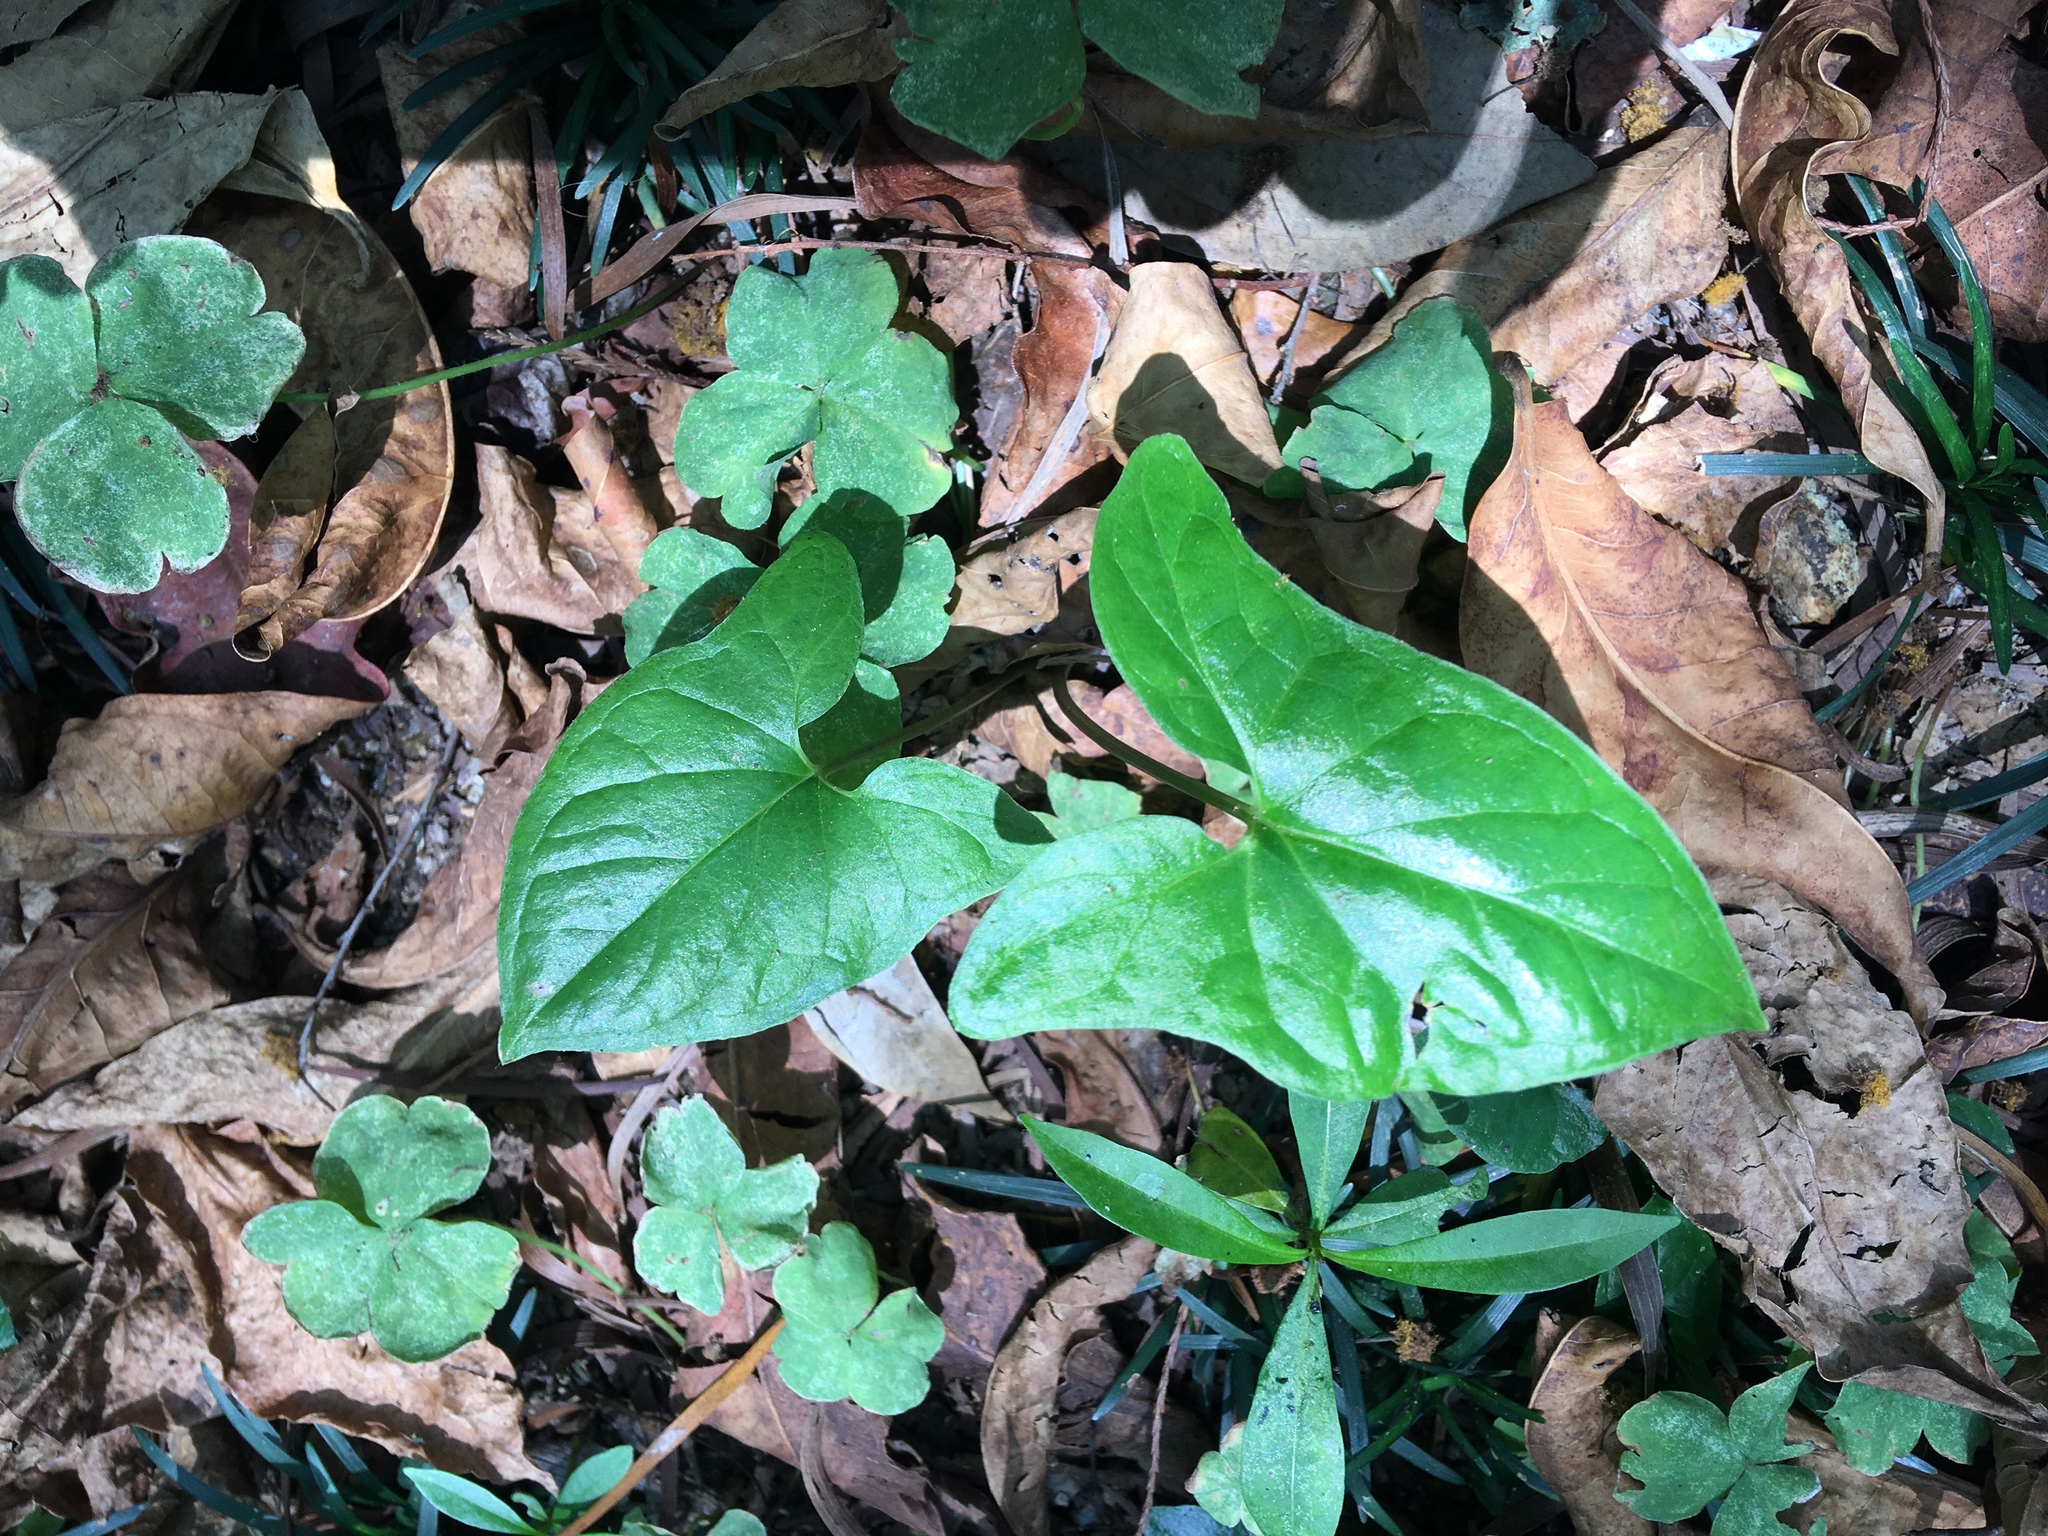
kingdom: Plantae
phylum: Tracheophyta
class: Liliopsida
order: Alismatales
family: Araceae
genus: Typhonium
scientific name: Typhonium blumei
